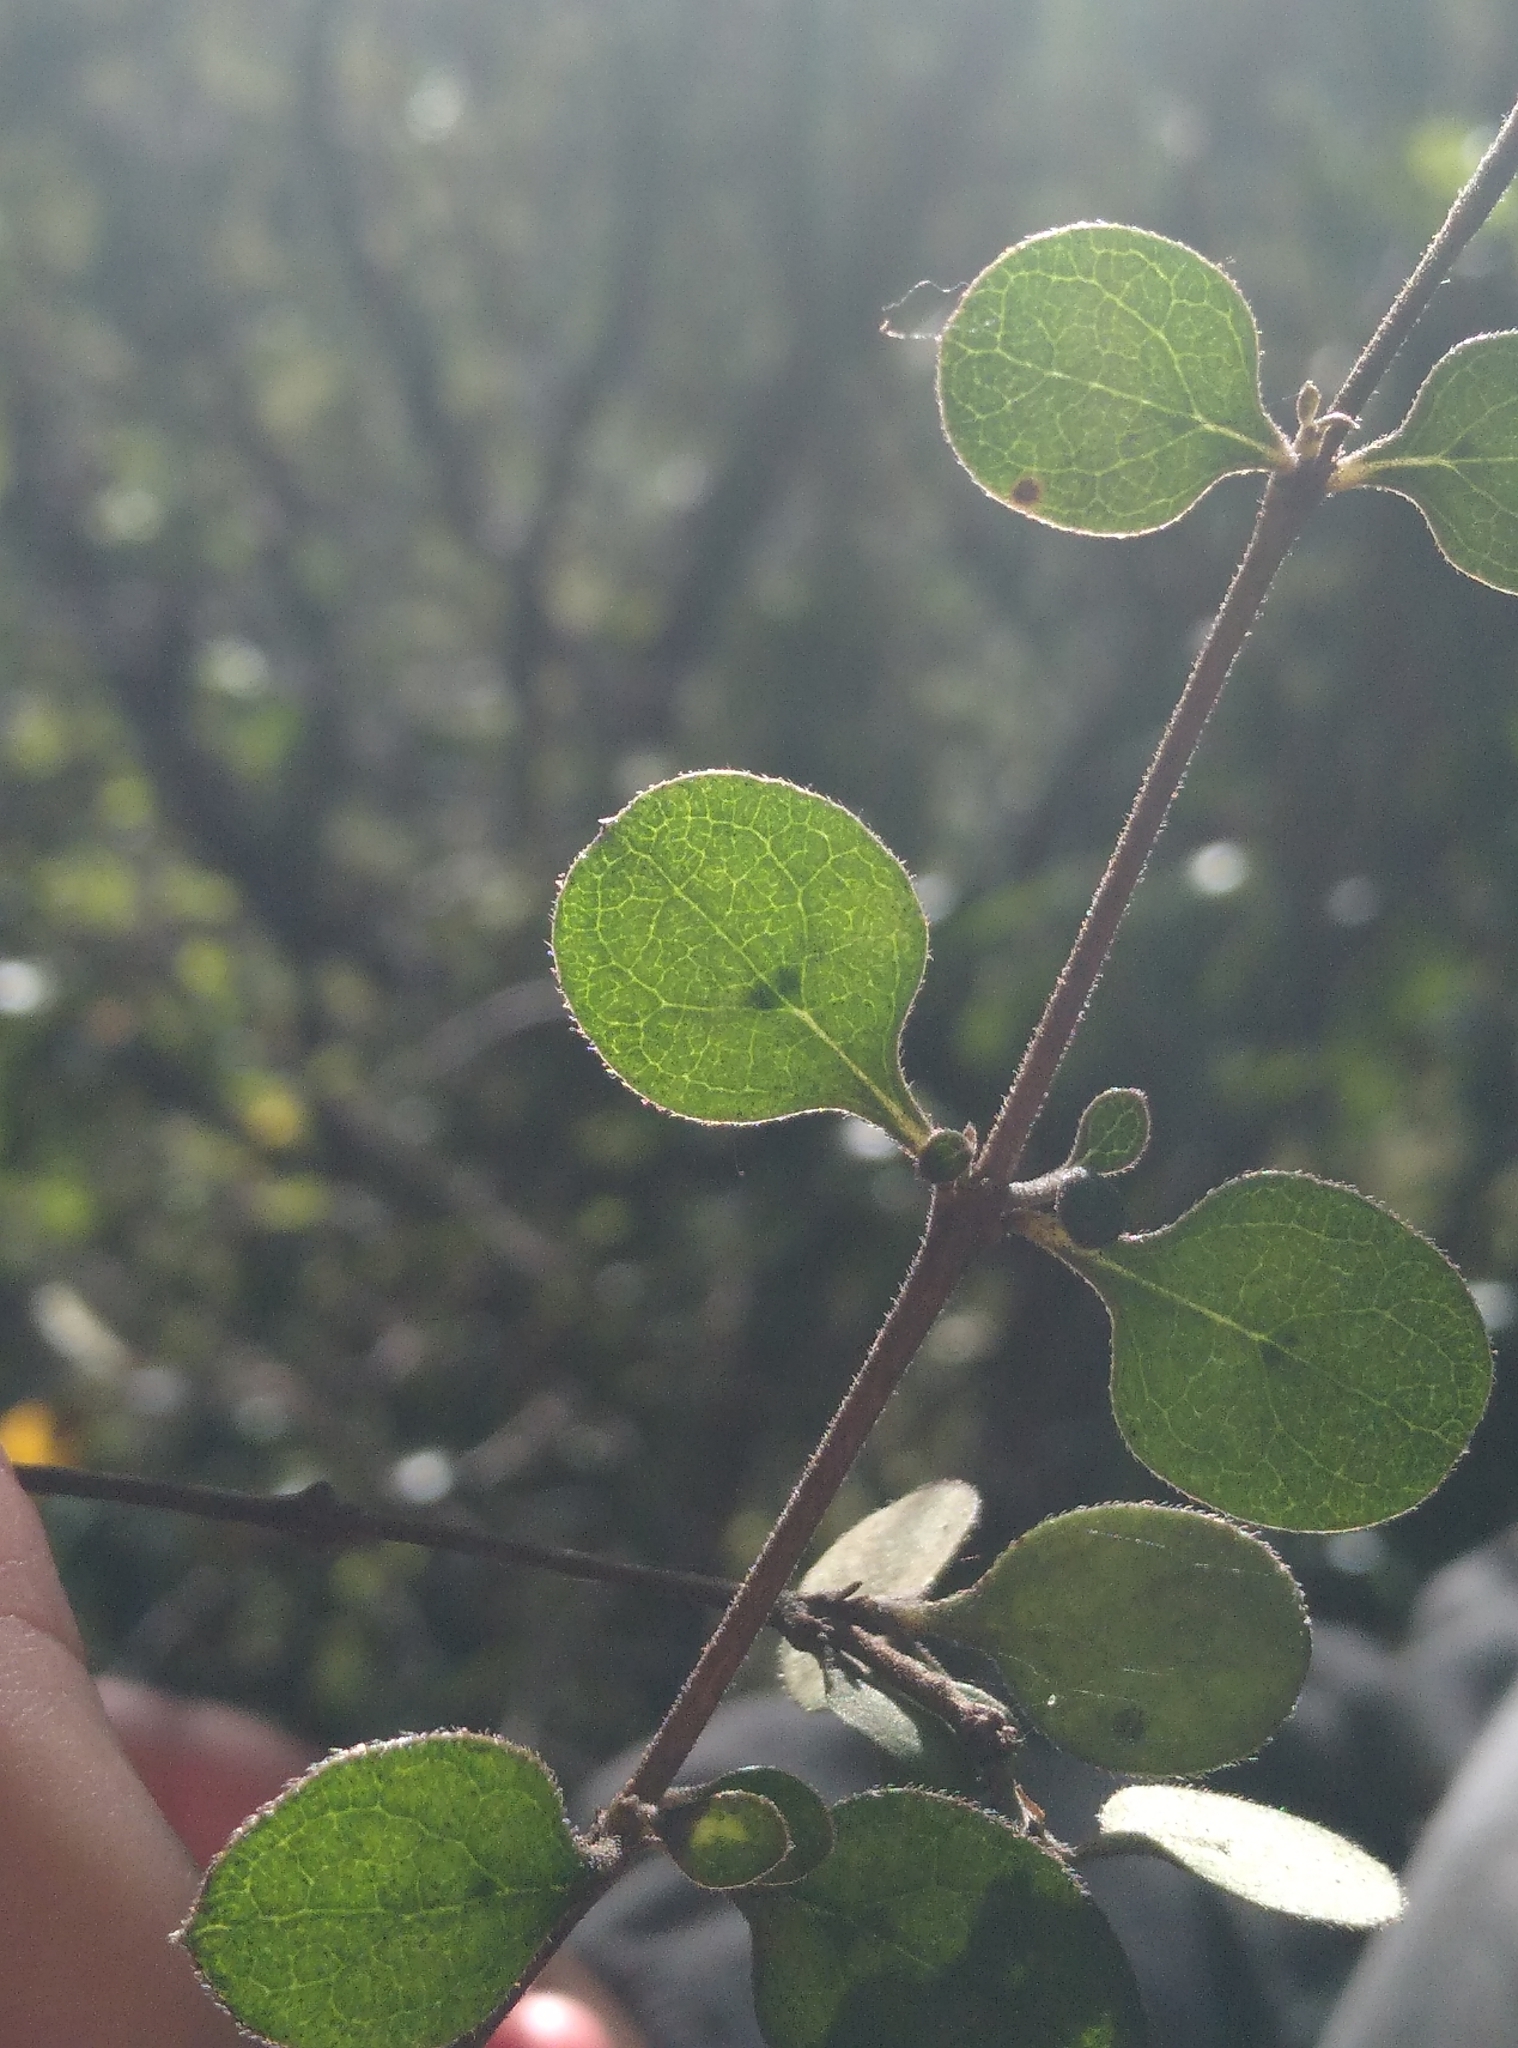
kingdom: Plantae
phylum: Tracheophyta
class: Magnoliopsida
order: Gentianales
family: Rubiaceae
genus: Coprosma
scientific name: Coprosma crassifolia
